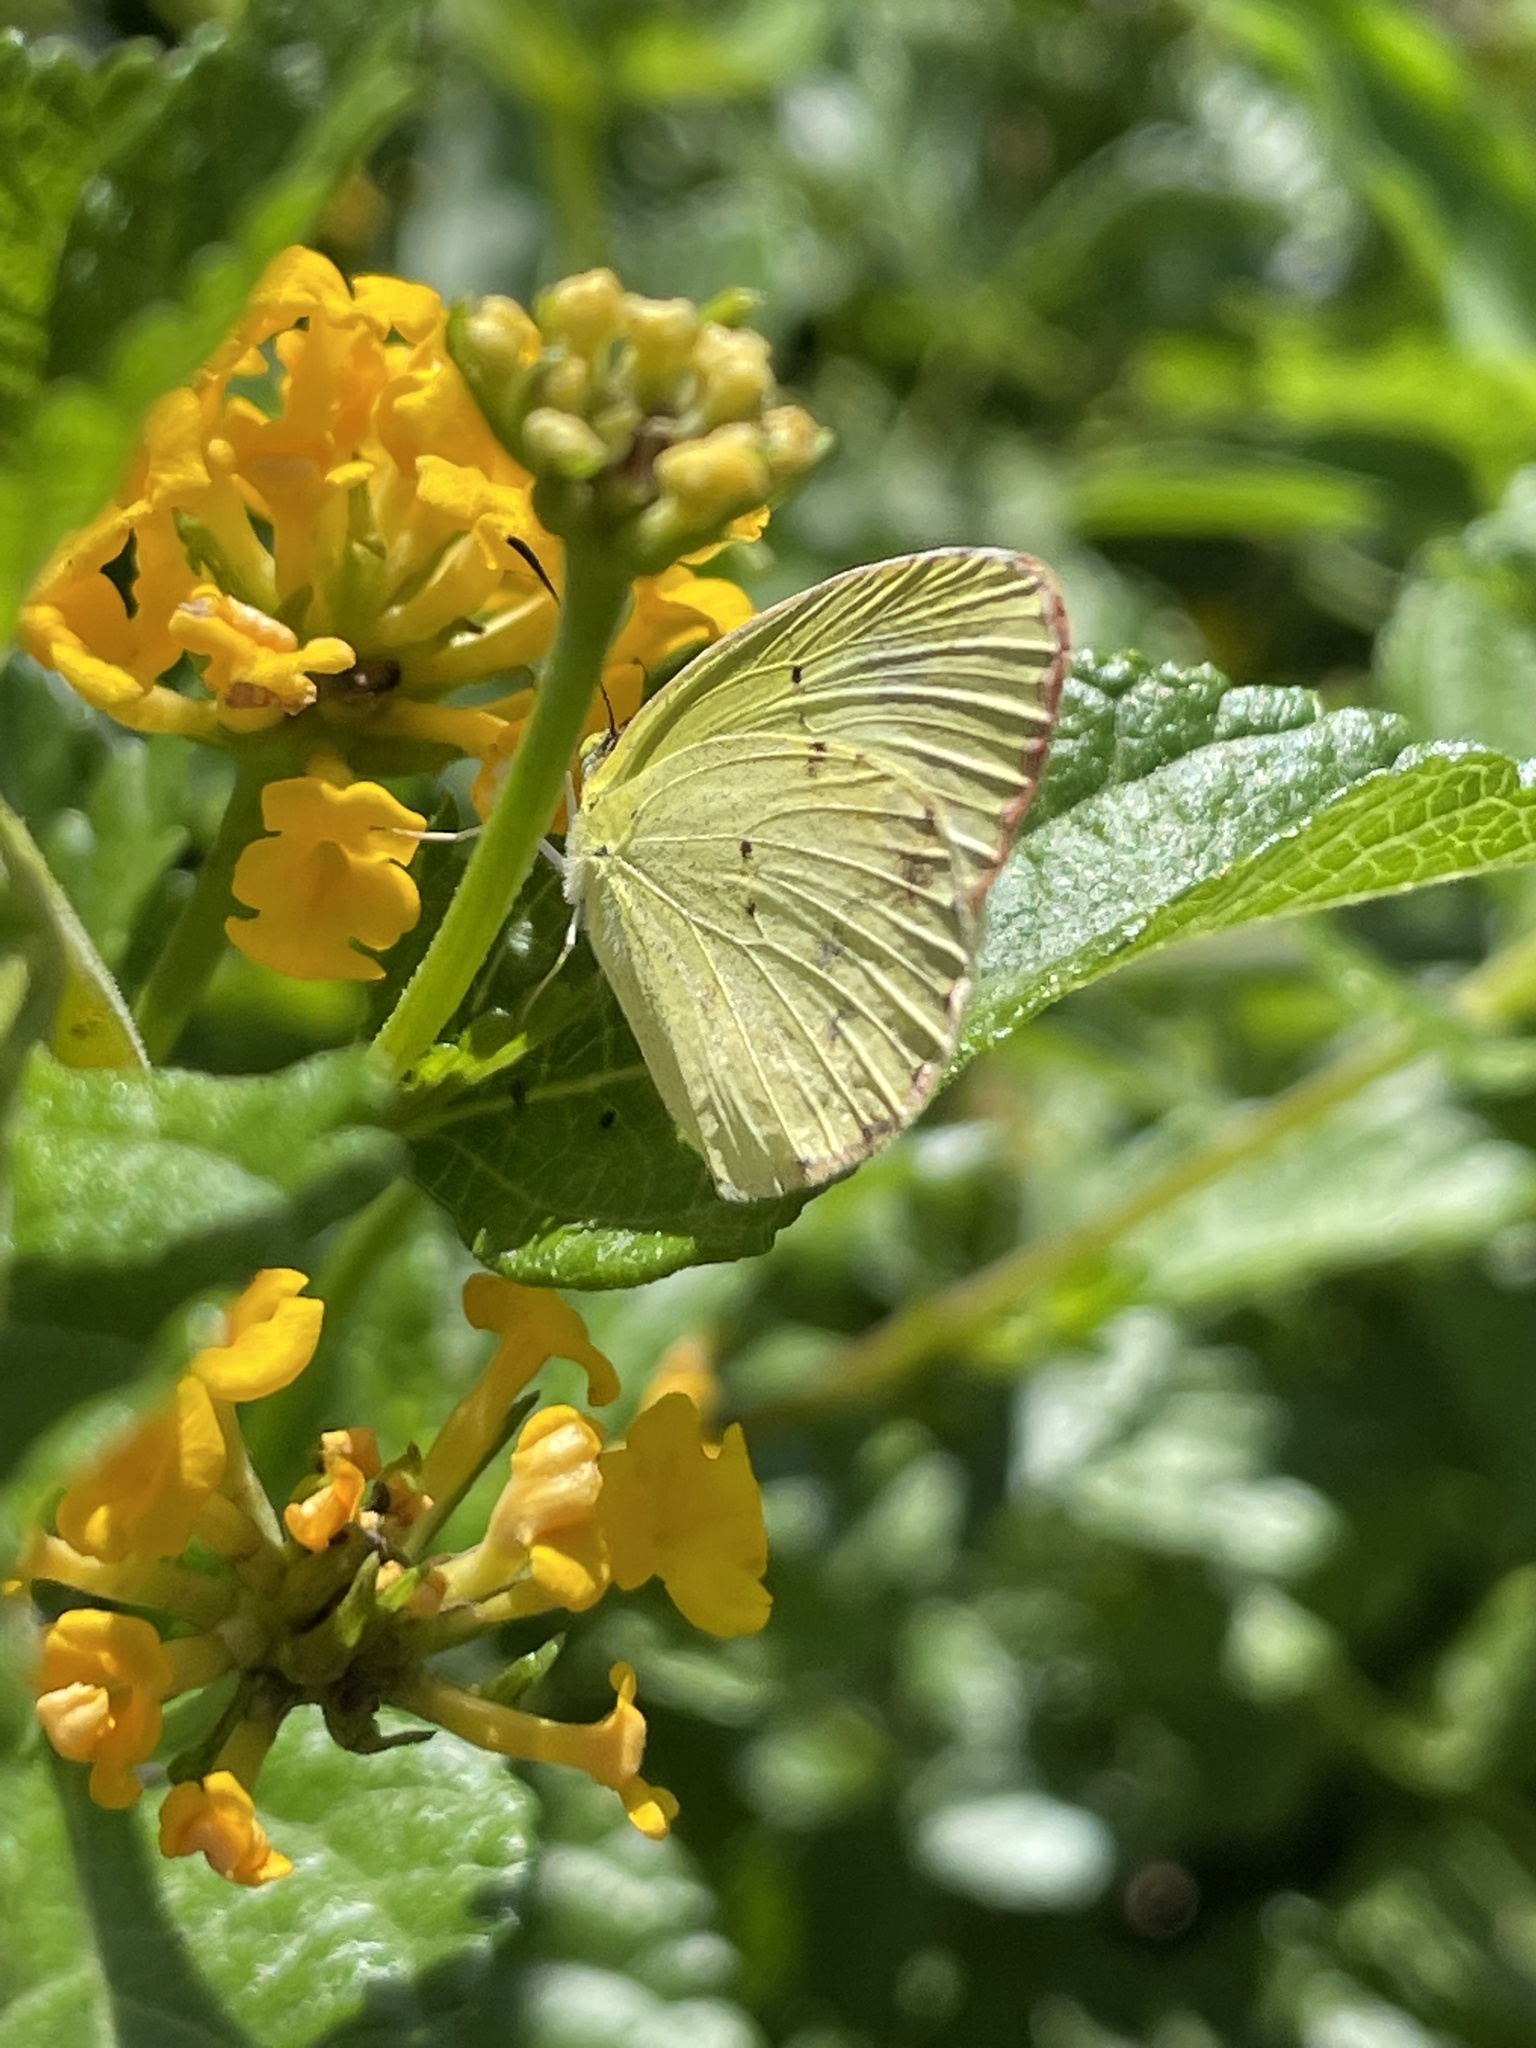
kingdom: Animalia
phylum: Arthropoda
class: Insecta
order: Lepidoptera
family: Pieridae
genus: Pyrisitia
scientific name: Pyrisitia lisa
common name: Little yellow
